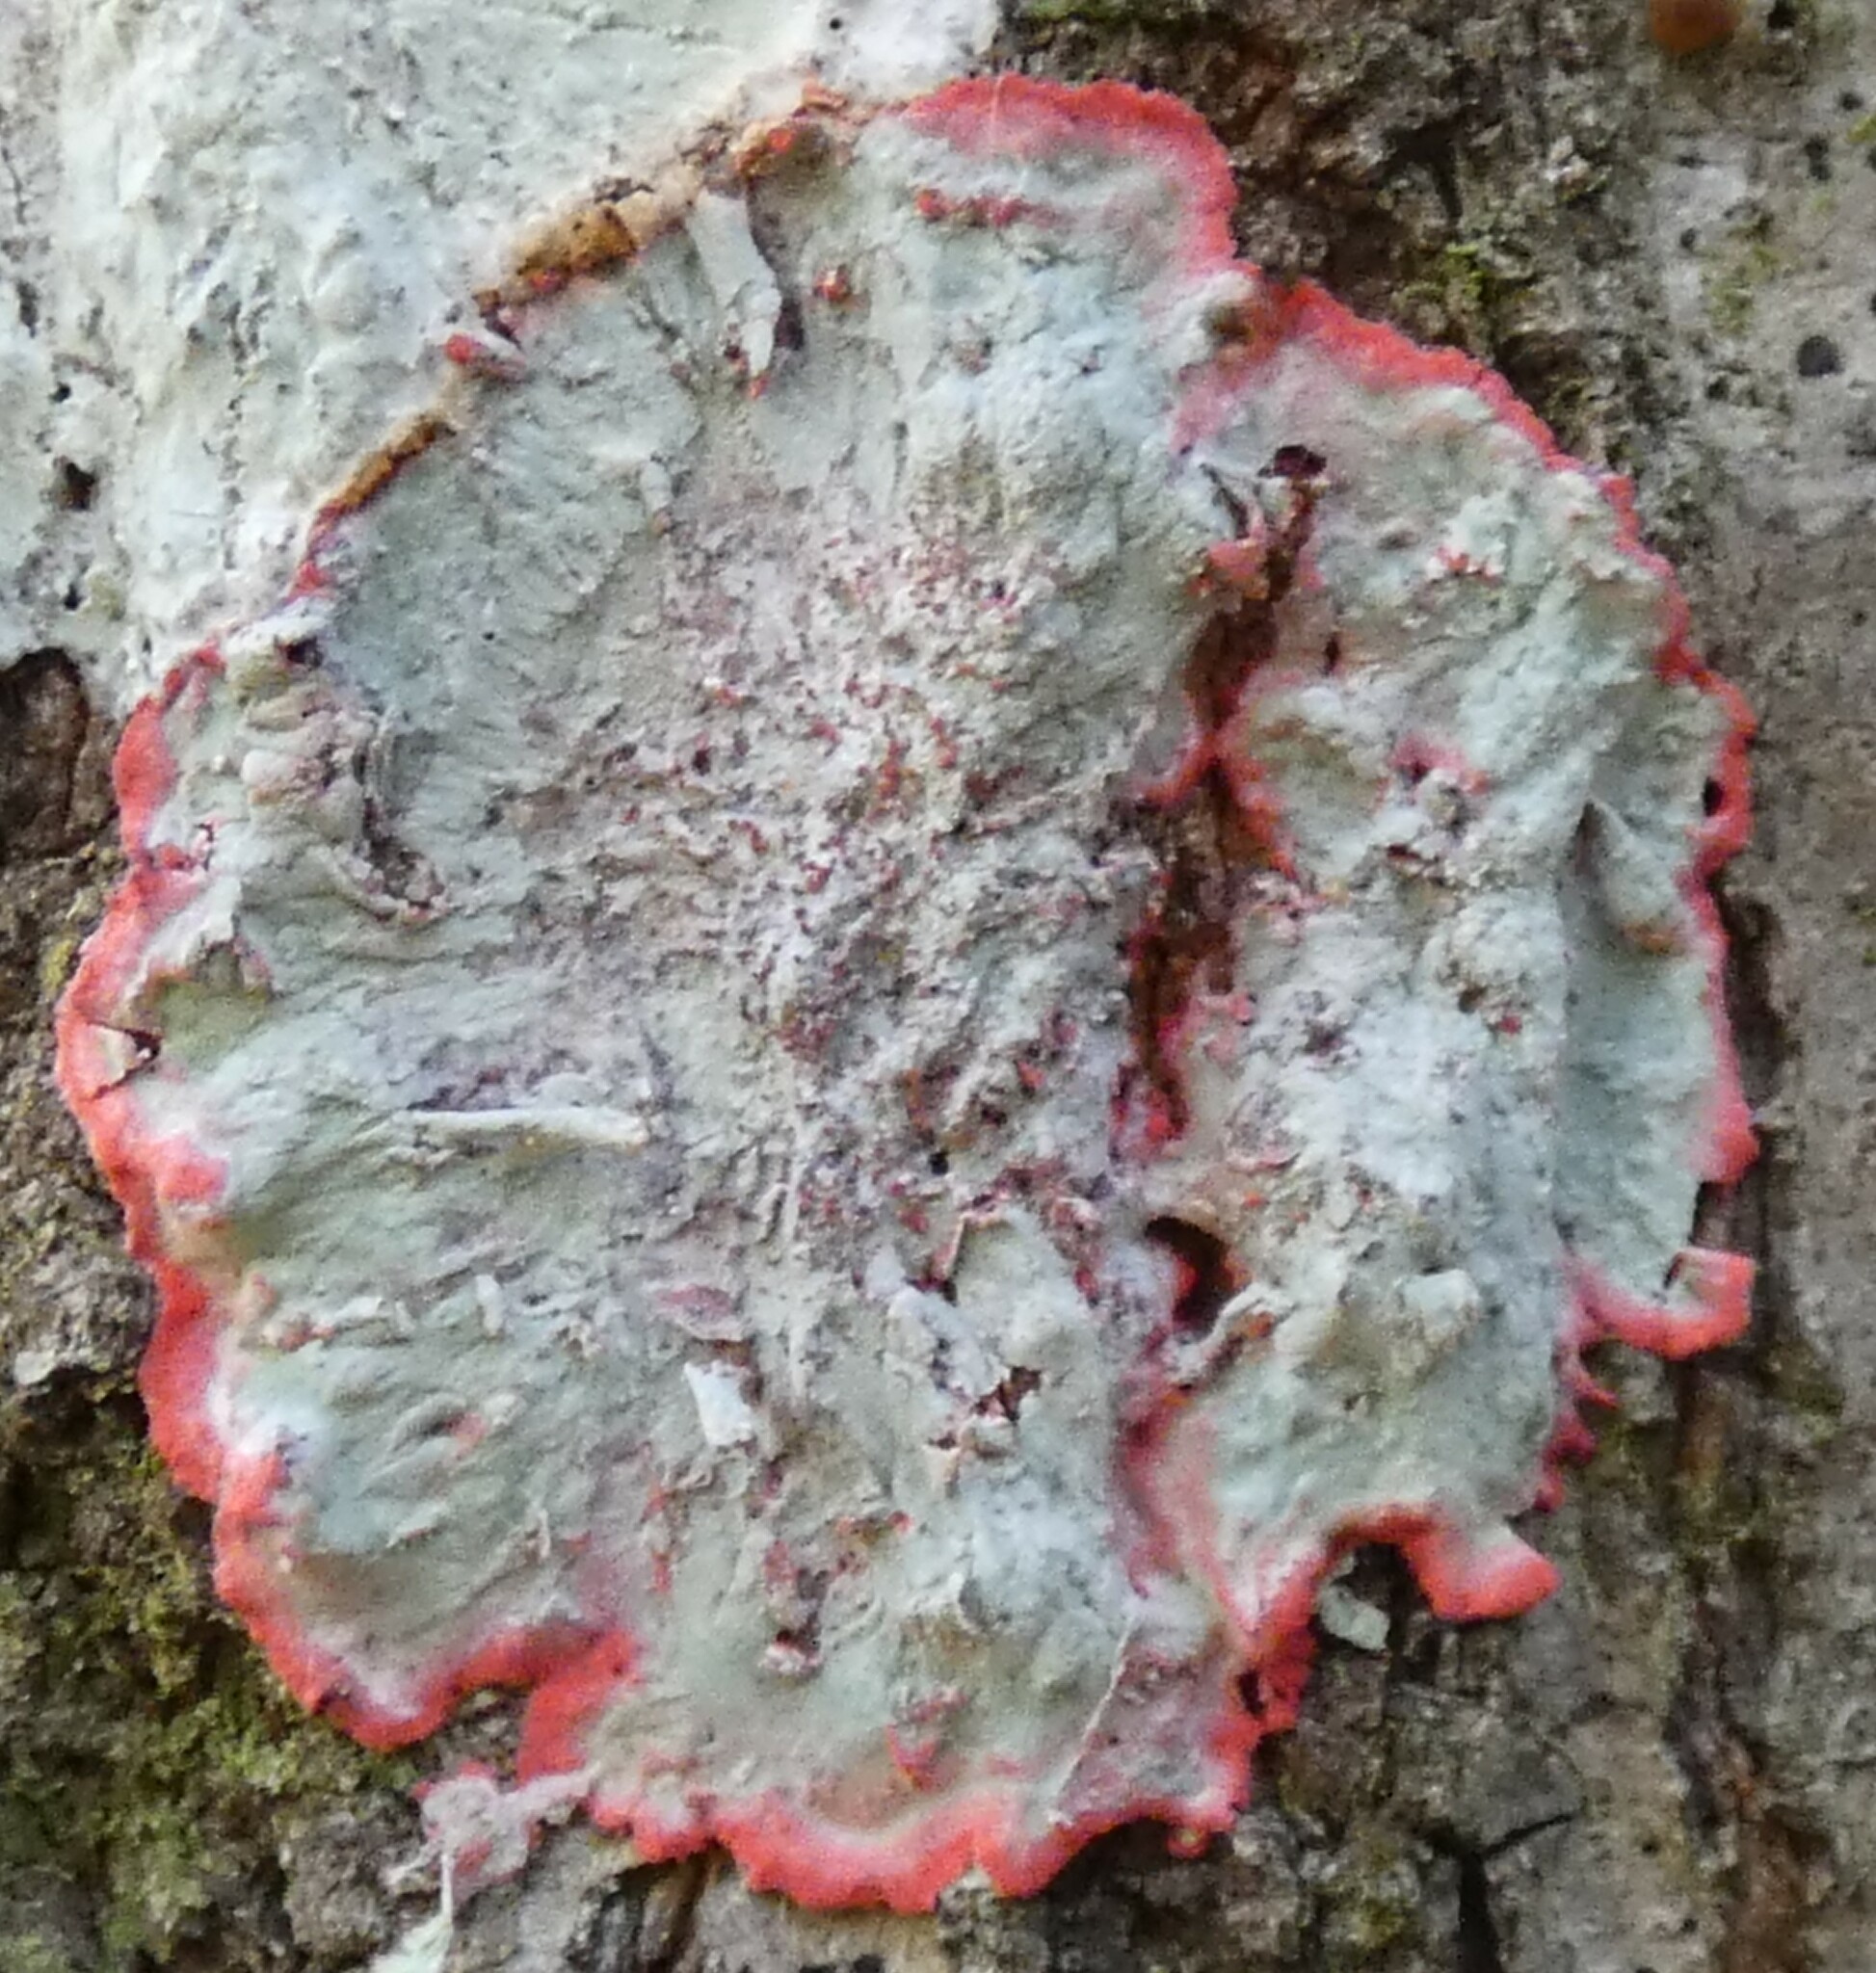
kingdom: Fungi
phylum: Ascomycota
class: Arthoniomycetes
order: Arthoniales
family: Arthoniaceae
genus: Herpothallon
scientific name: Herpothallon rubrocinctum
